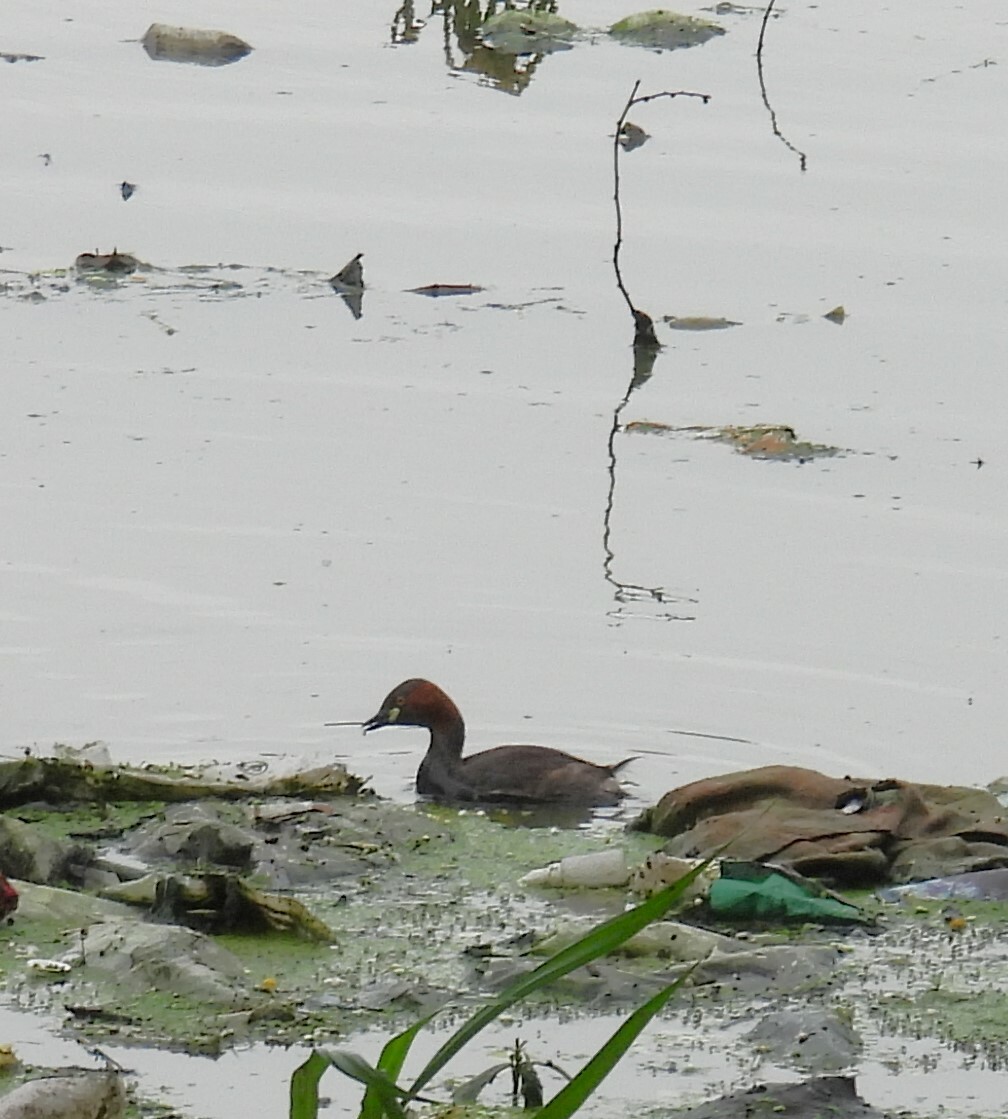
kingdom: Animalia
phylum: Chordata
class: Aves
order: Podicipediformes
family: Podicipedidae
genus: Tachybaptus
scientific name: Tachybaptus ruficollis
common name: Little grebe
